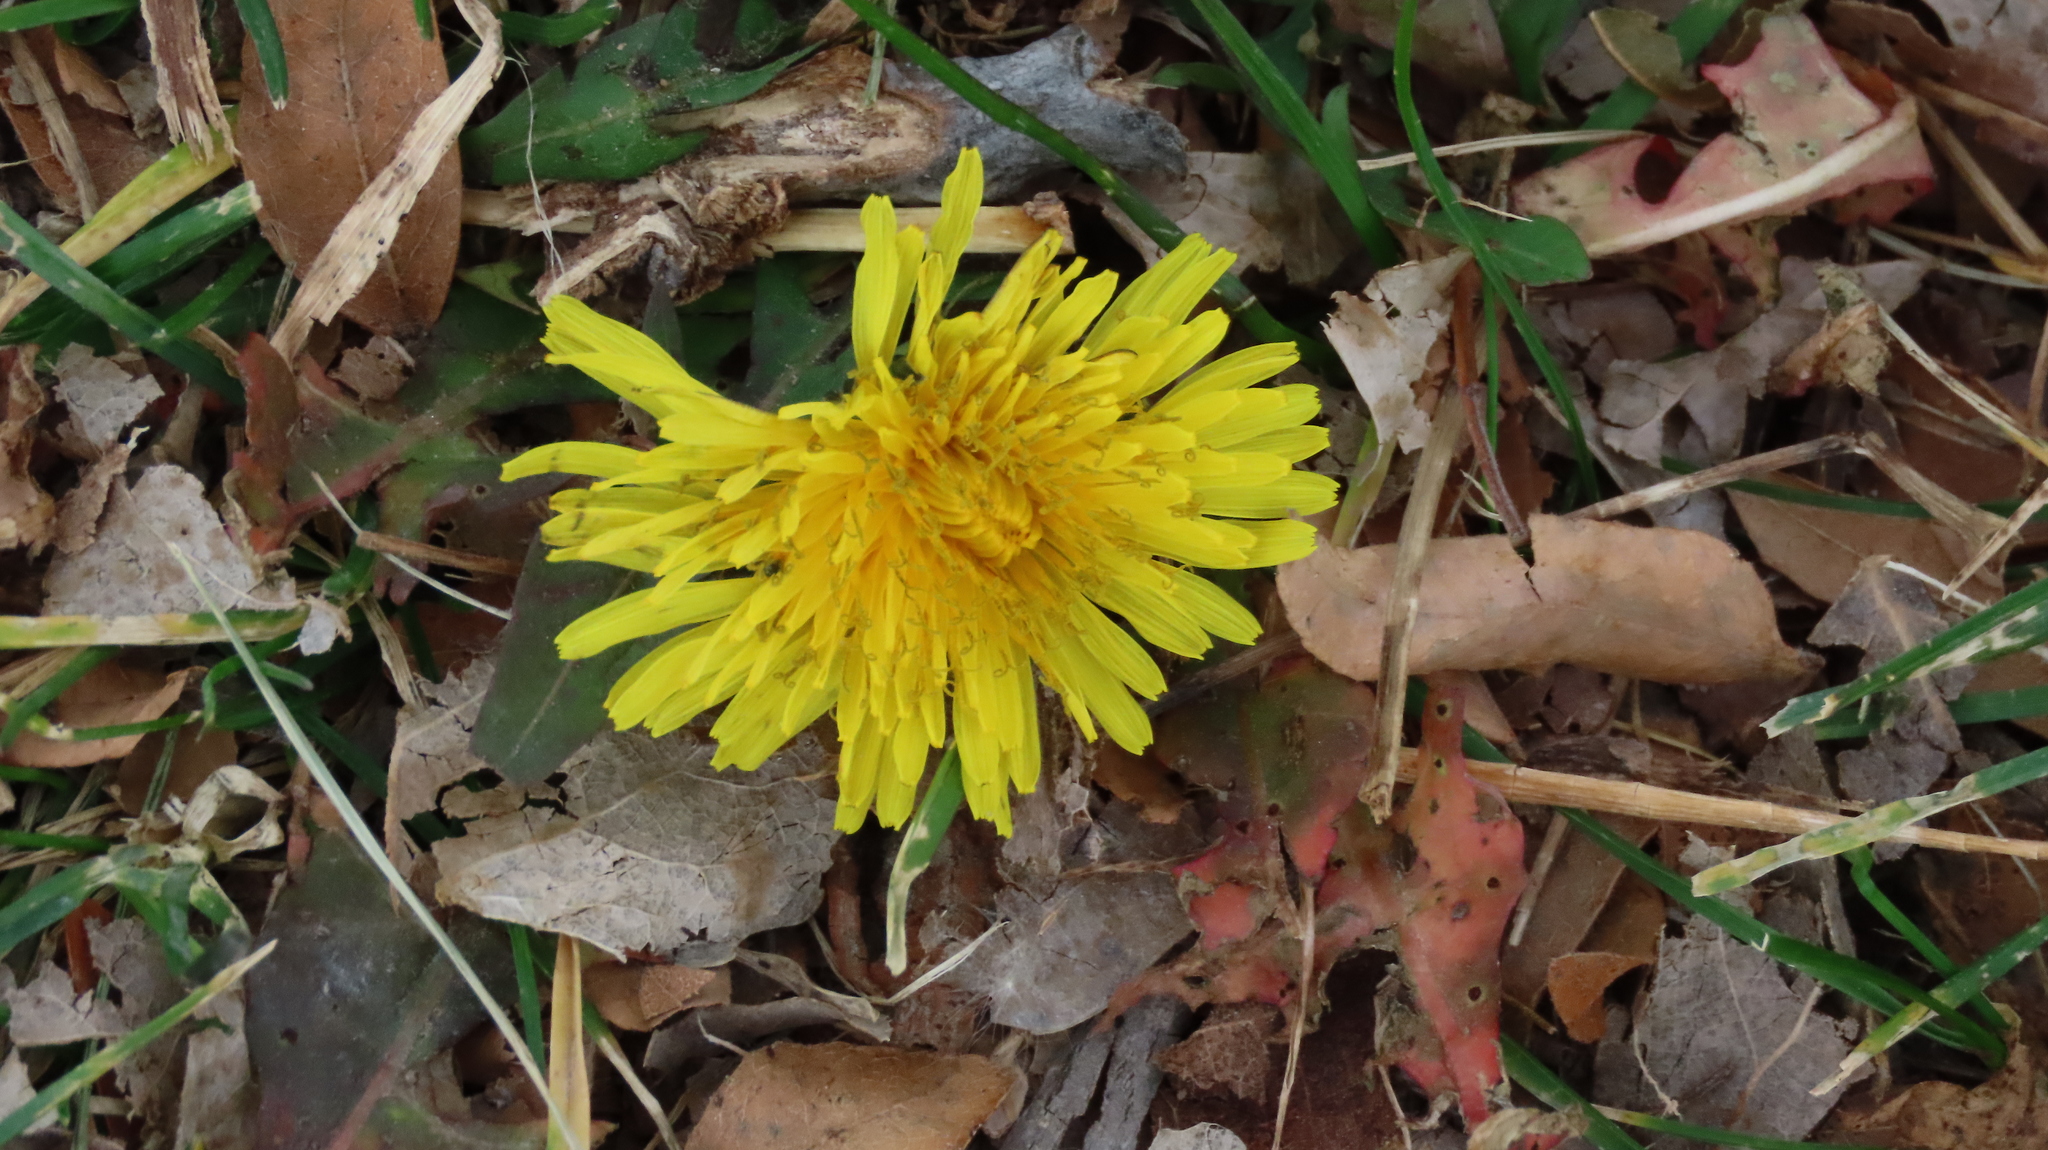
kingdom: Plantae
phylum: Tracheophyta
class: Magnoliopsida
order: Asterales
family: Asteraceae
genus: Taraxacum
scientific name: Taraxacum officinale
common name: Common dandelion
